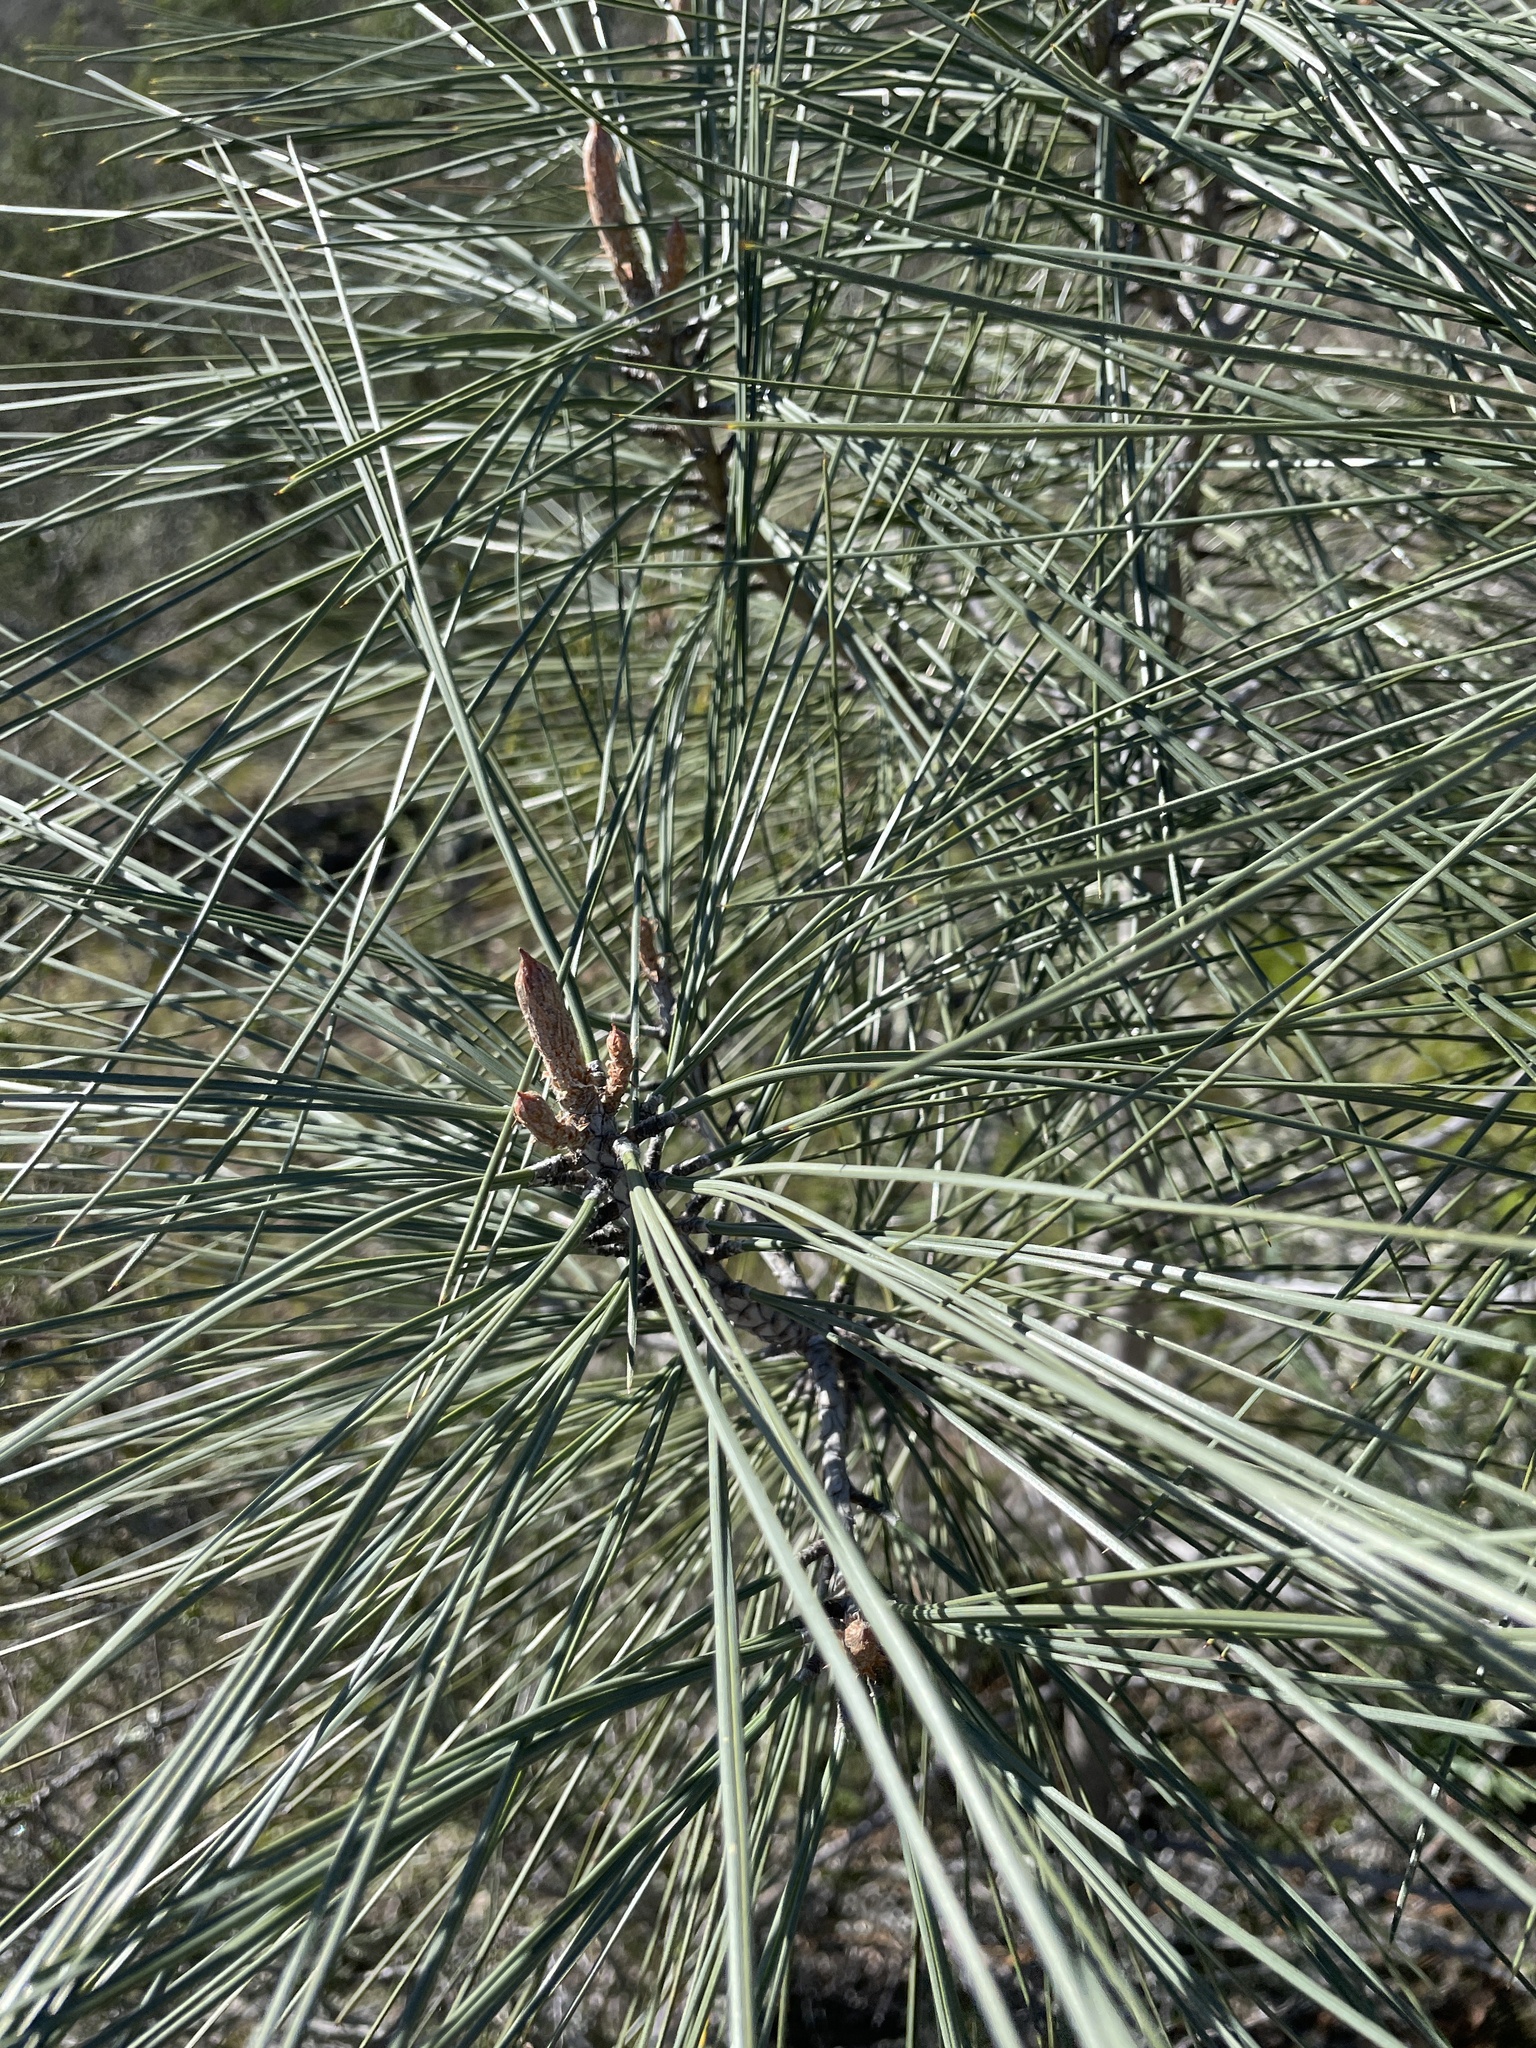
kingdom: Plantae
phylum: Tracheophyta
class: Pinopsida
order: Pinales
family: Pinaceae
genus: Pinus
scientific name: Pinus sabiniana
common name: Bull pine
